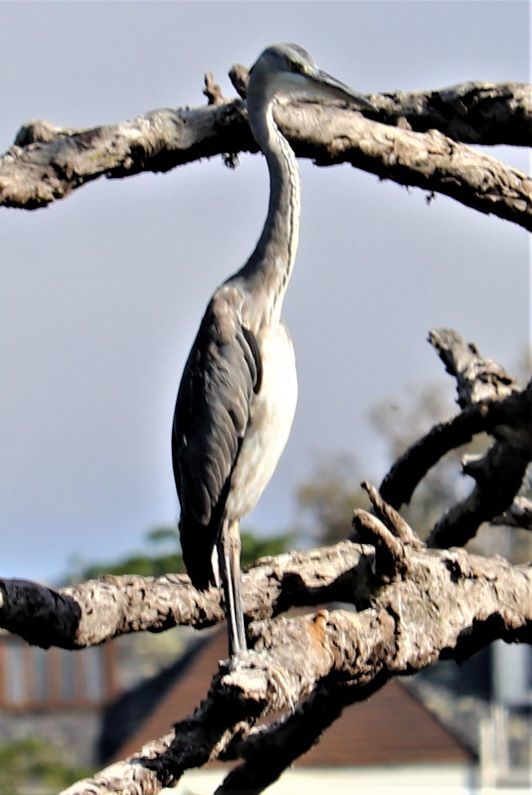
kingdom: Animalia
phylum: Chordata
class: Aves
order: Pelecaniformes
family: Ardeidae
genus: Ardea
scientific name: Ardea cinerea
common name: Grey heron
